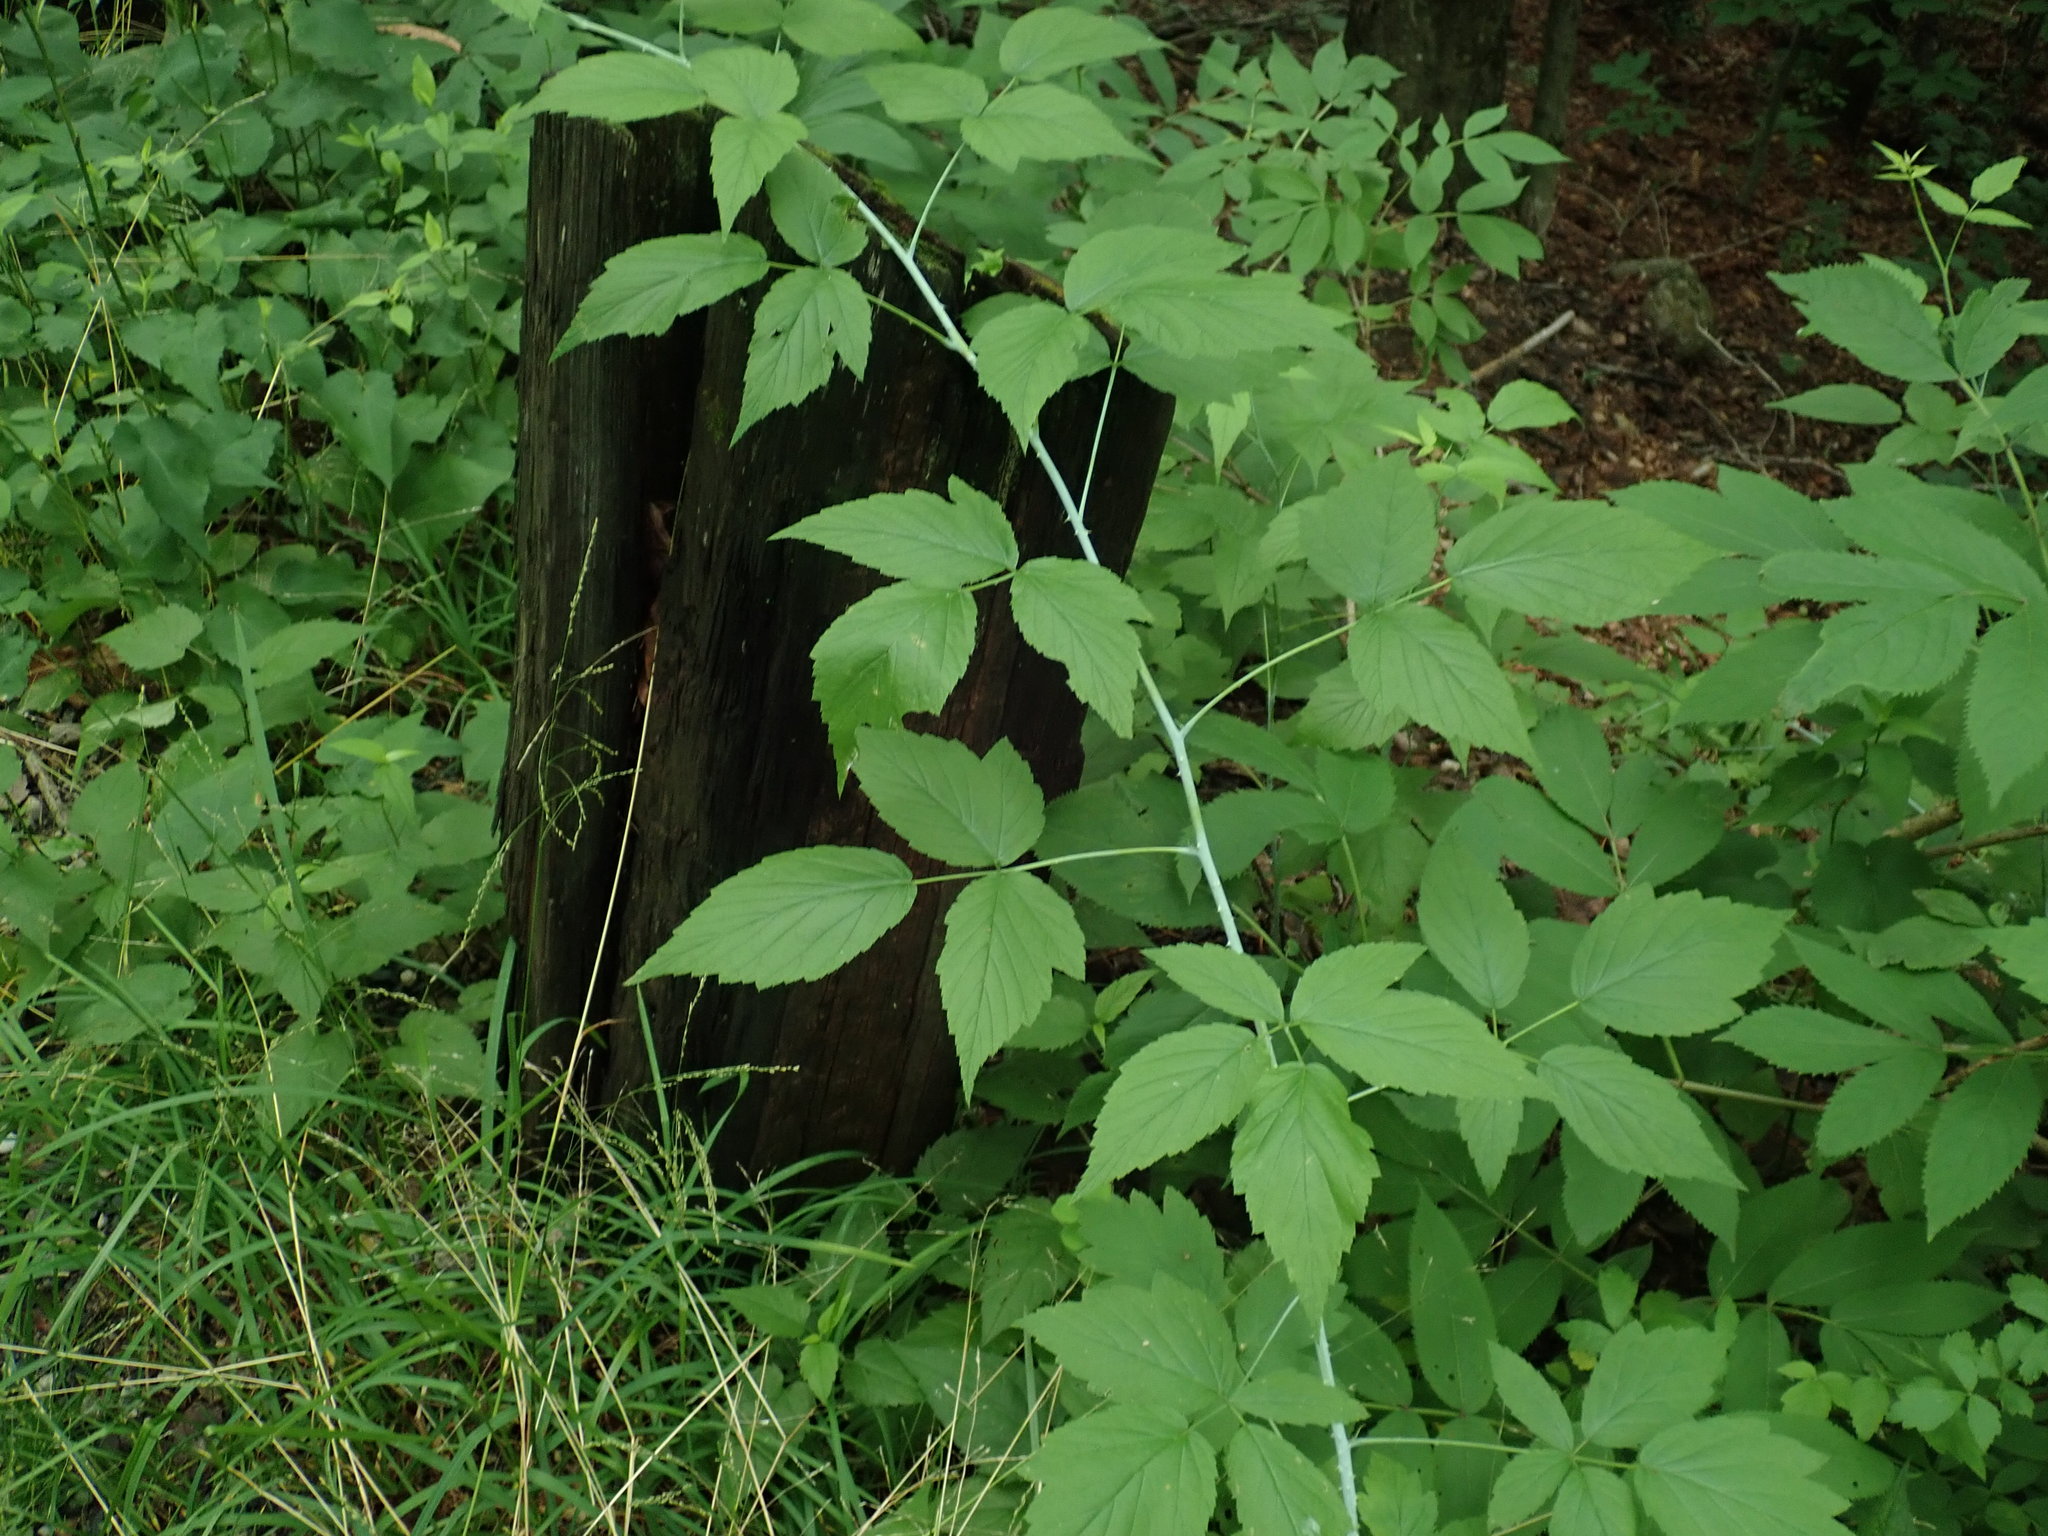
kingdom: Plantae
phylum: Tracheophyta
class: Magnoliopsida
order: Rosales
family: Rosaceae
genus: Rubus
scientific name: Rubus occidentalis
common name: Black raspberry
